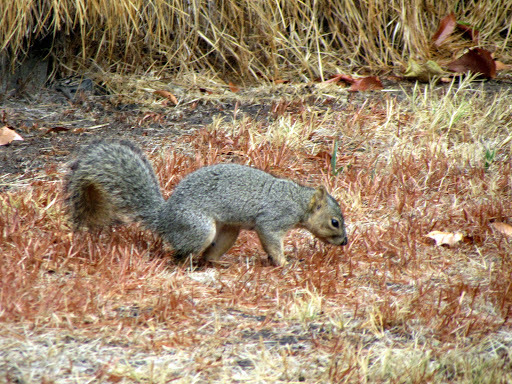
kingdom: Animalia
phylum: Chordata
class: Mammalia
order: Rodentia
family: Sciuridae
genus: Sciurus
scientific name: Sciurus niger
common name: Fox squirrel
